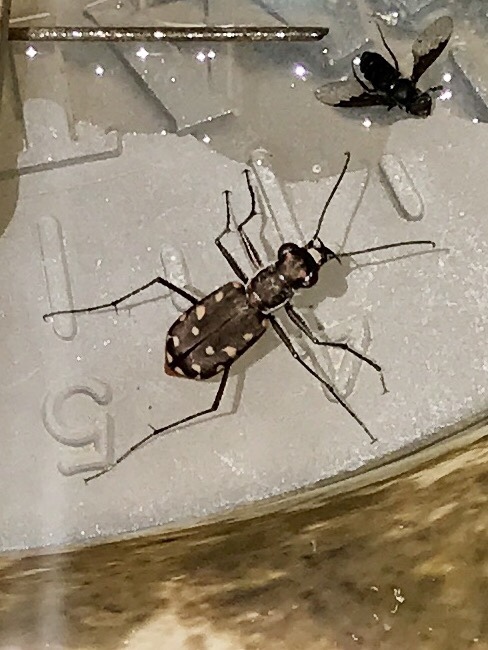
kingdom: Animalia
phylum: Arthropoda
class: Insecta
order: Coleoptera
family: Carabidae
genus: Cicindela
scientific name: Cicindela sedecimpunctata
